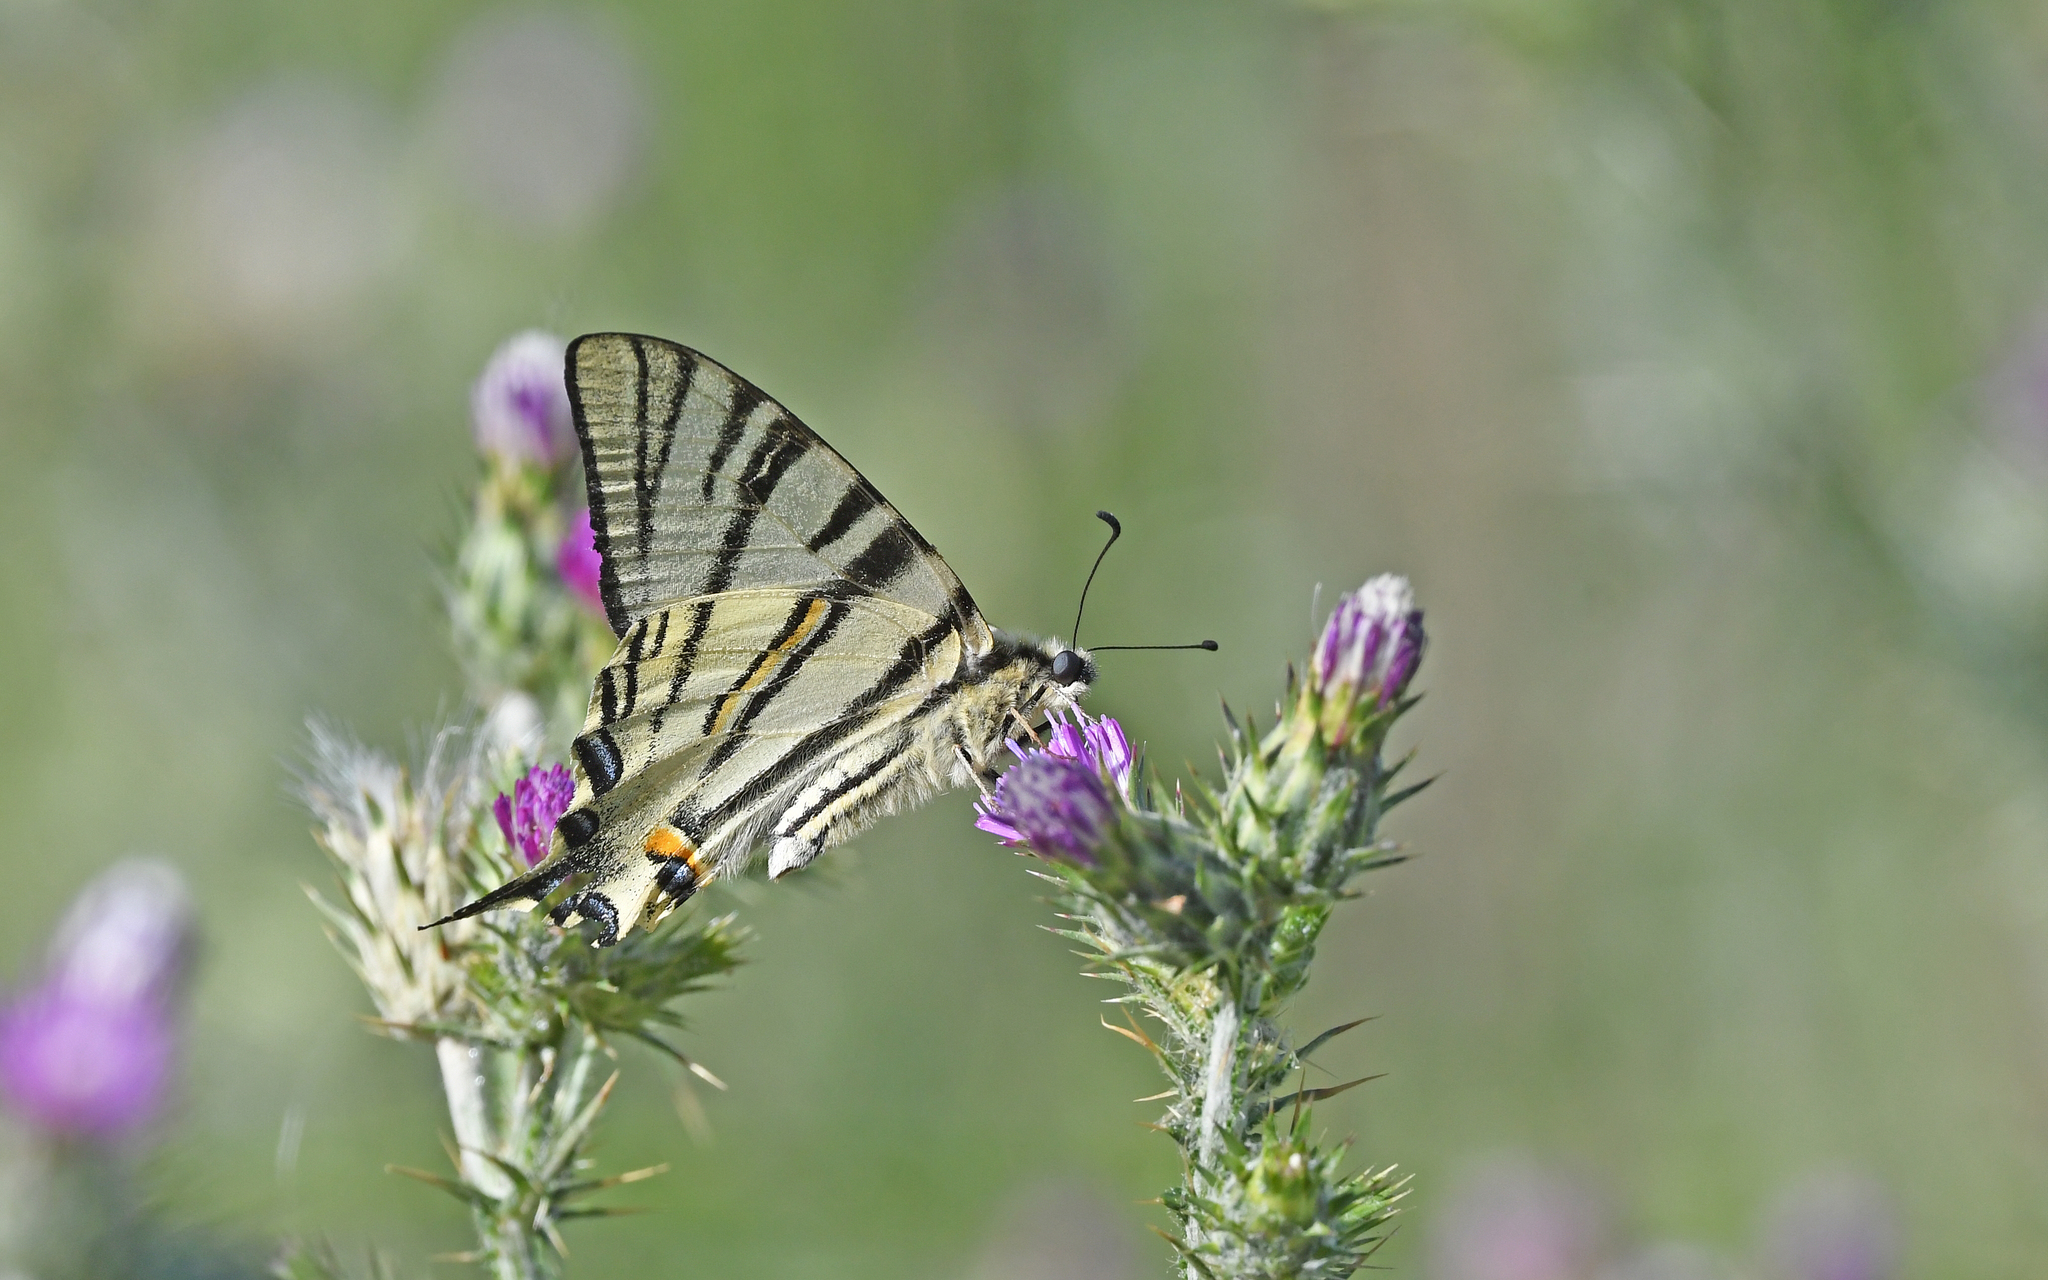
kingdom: Animalia
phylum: Arthropoda
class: Insecta
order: Lepidoptera
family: Papilionidae
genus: Iphiclides
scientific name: Iphiclides podalirius
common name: Scarce swallowtail
